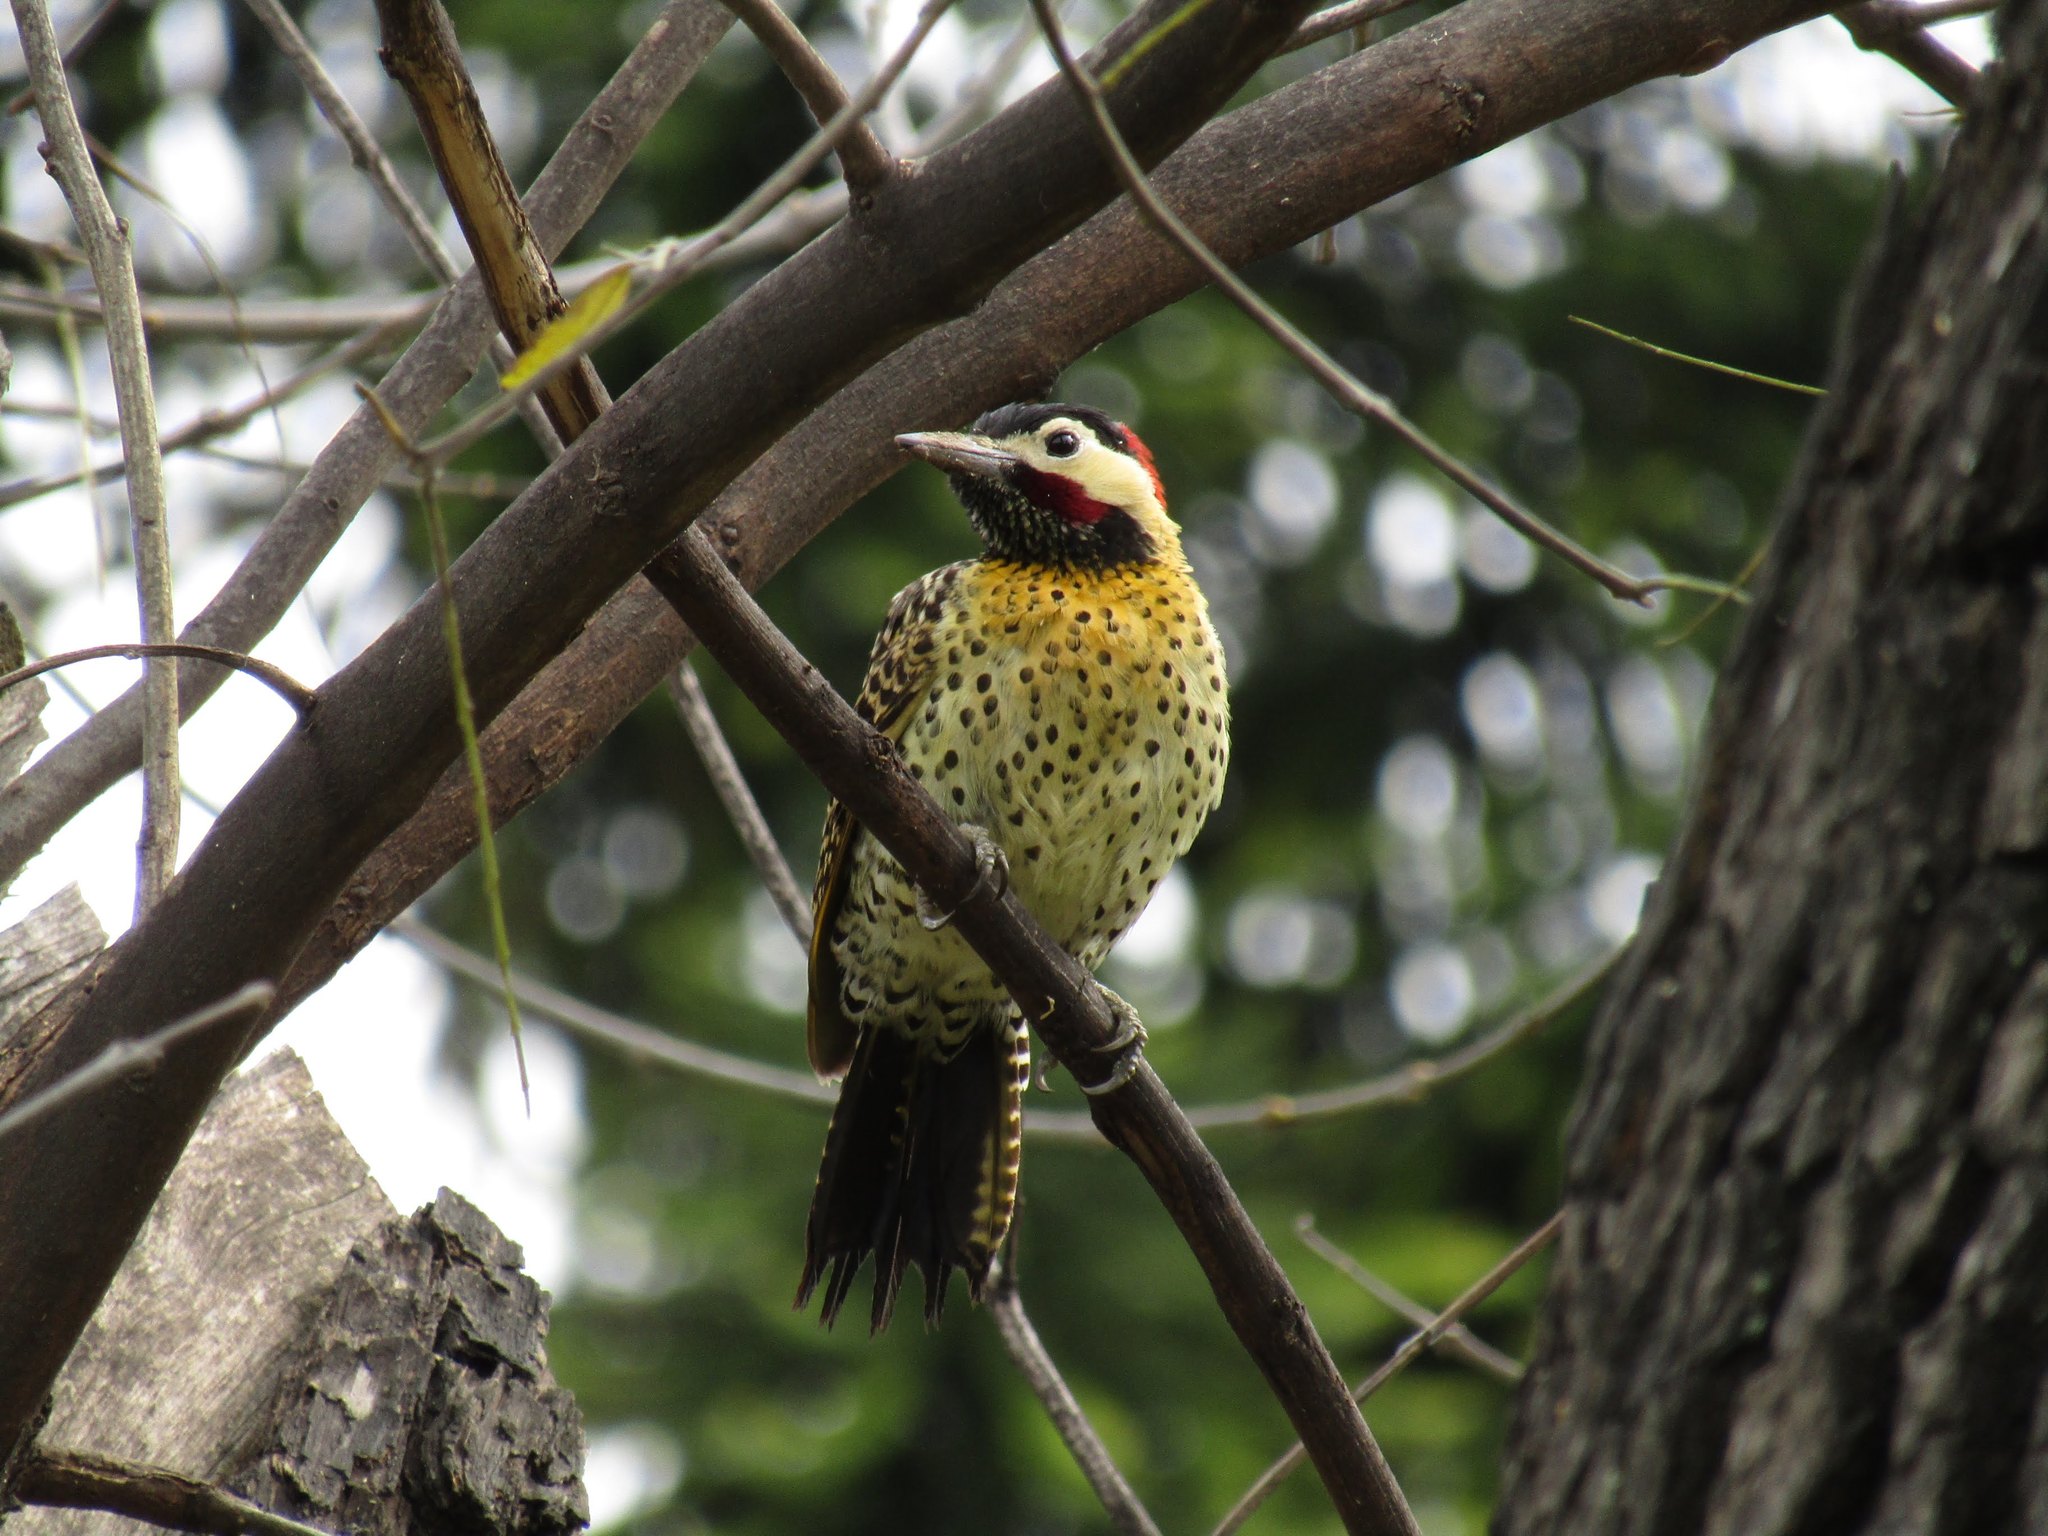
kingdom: Animalia
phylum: Chordata
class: Aves
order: Piciformes
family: Picidae
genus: Colaptes
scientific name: Colaptes melanochloros
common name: Green-barred woodpecker
